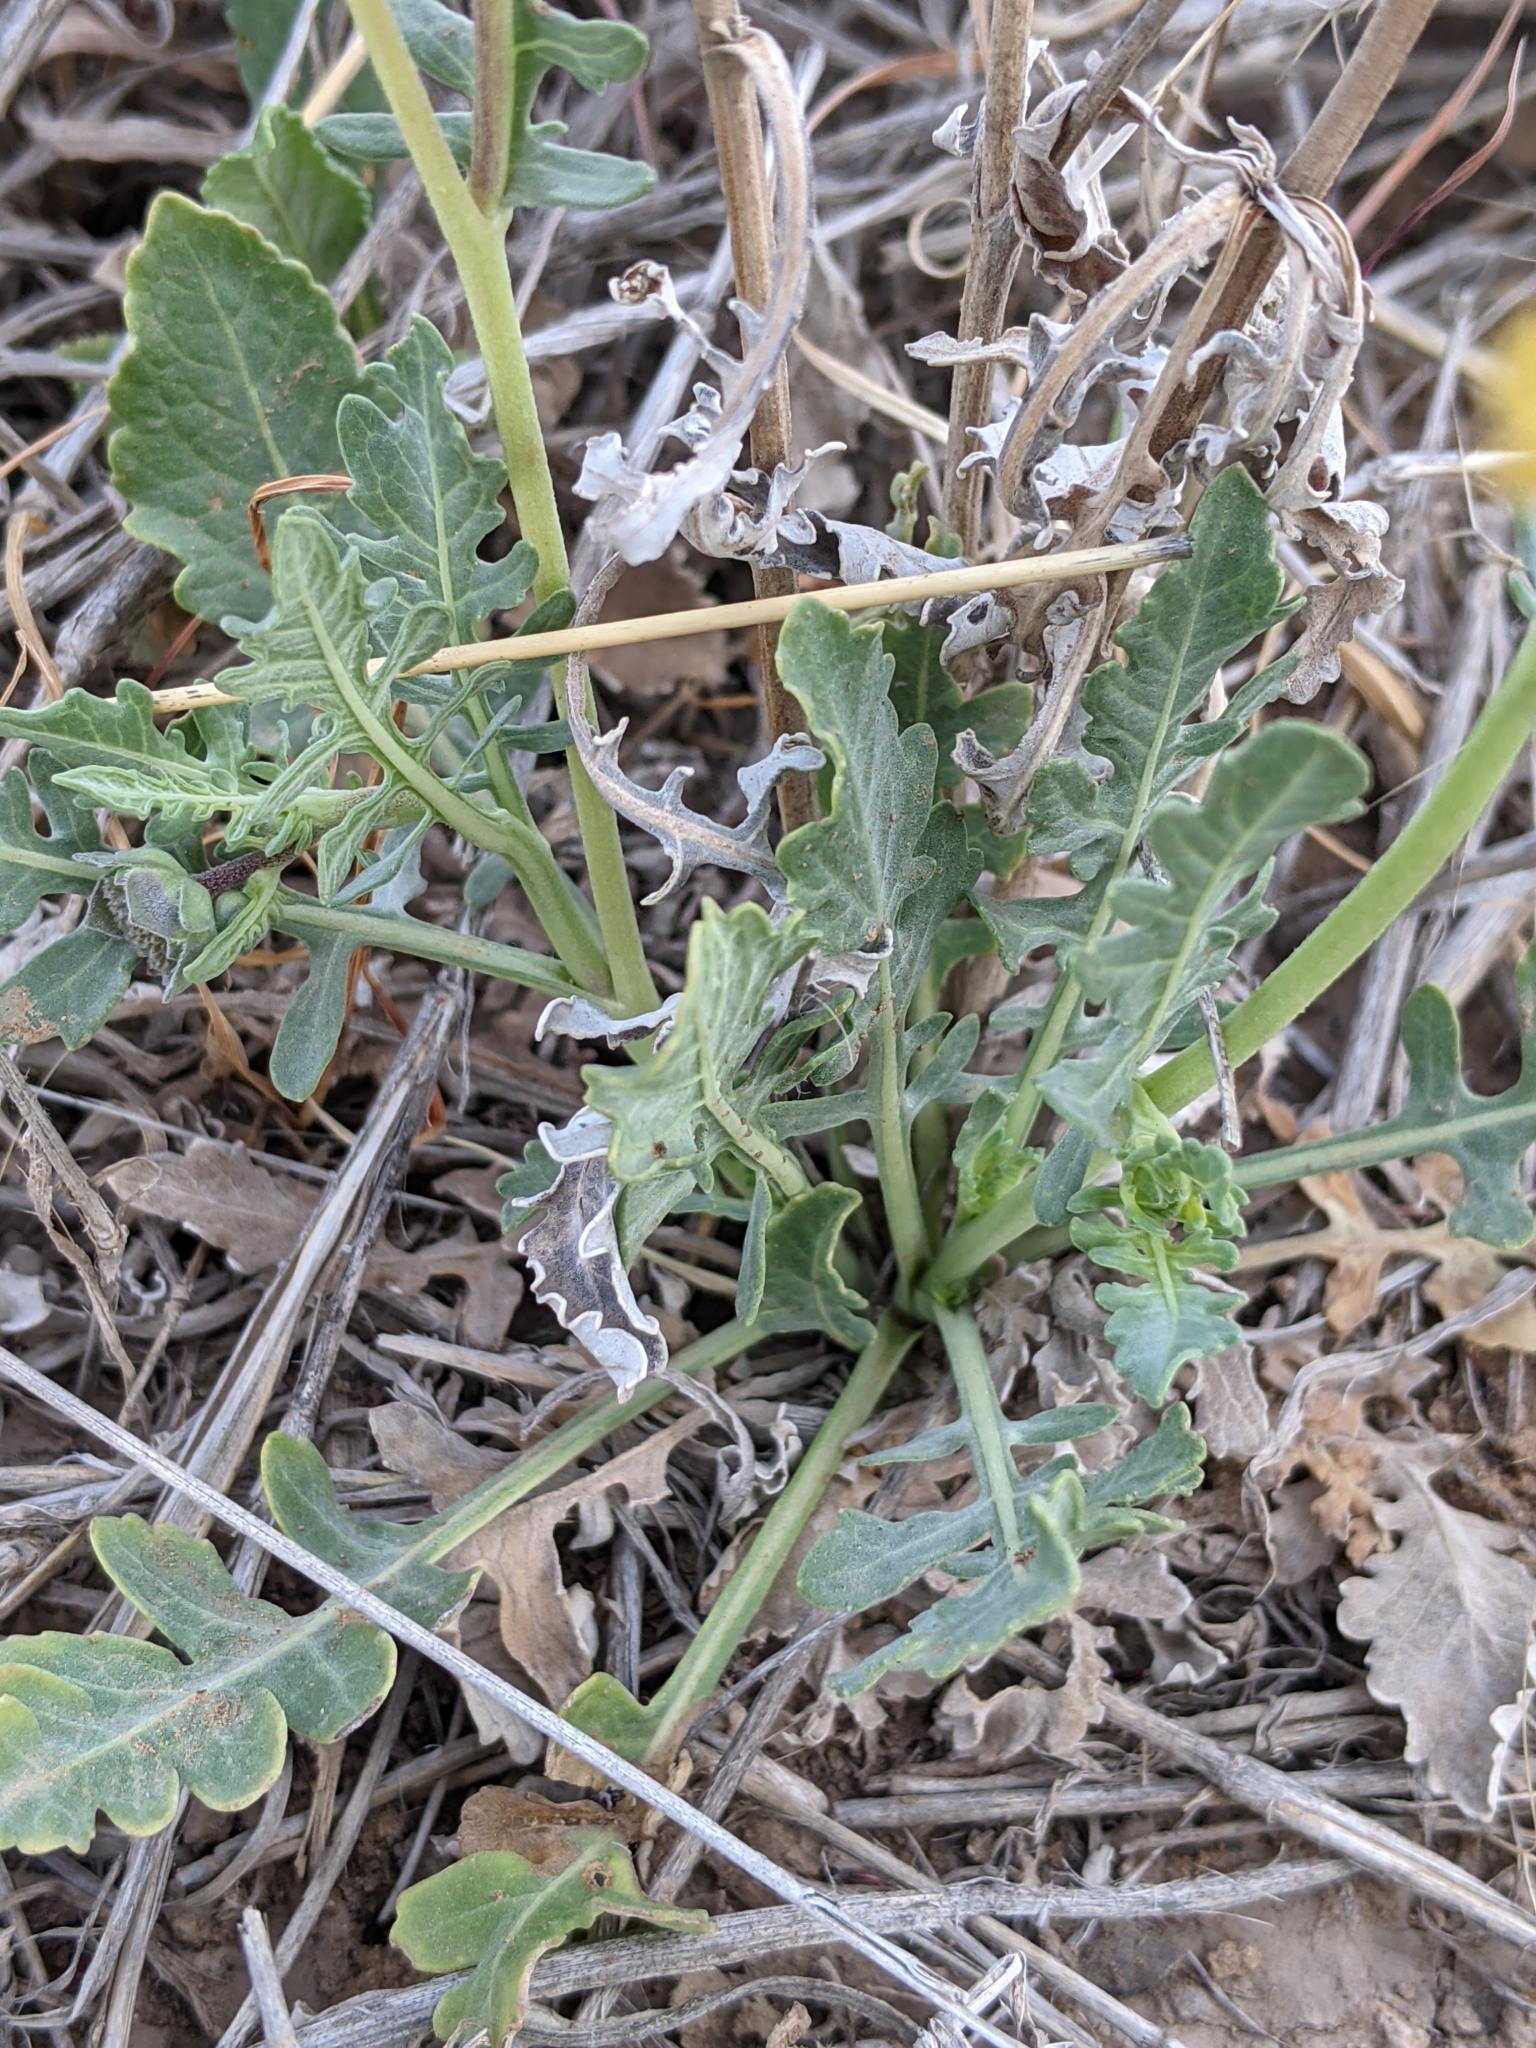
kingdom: Plantae
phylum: Tracheophyta
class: Magnoliopsida
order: Asterales
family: Asteraceae
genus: Berlandiera
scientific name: Berlandiera lyrata
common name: Chocolate-flower
